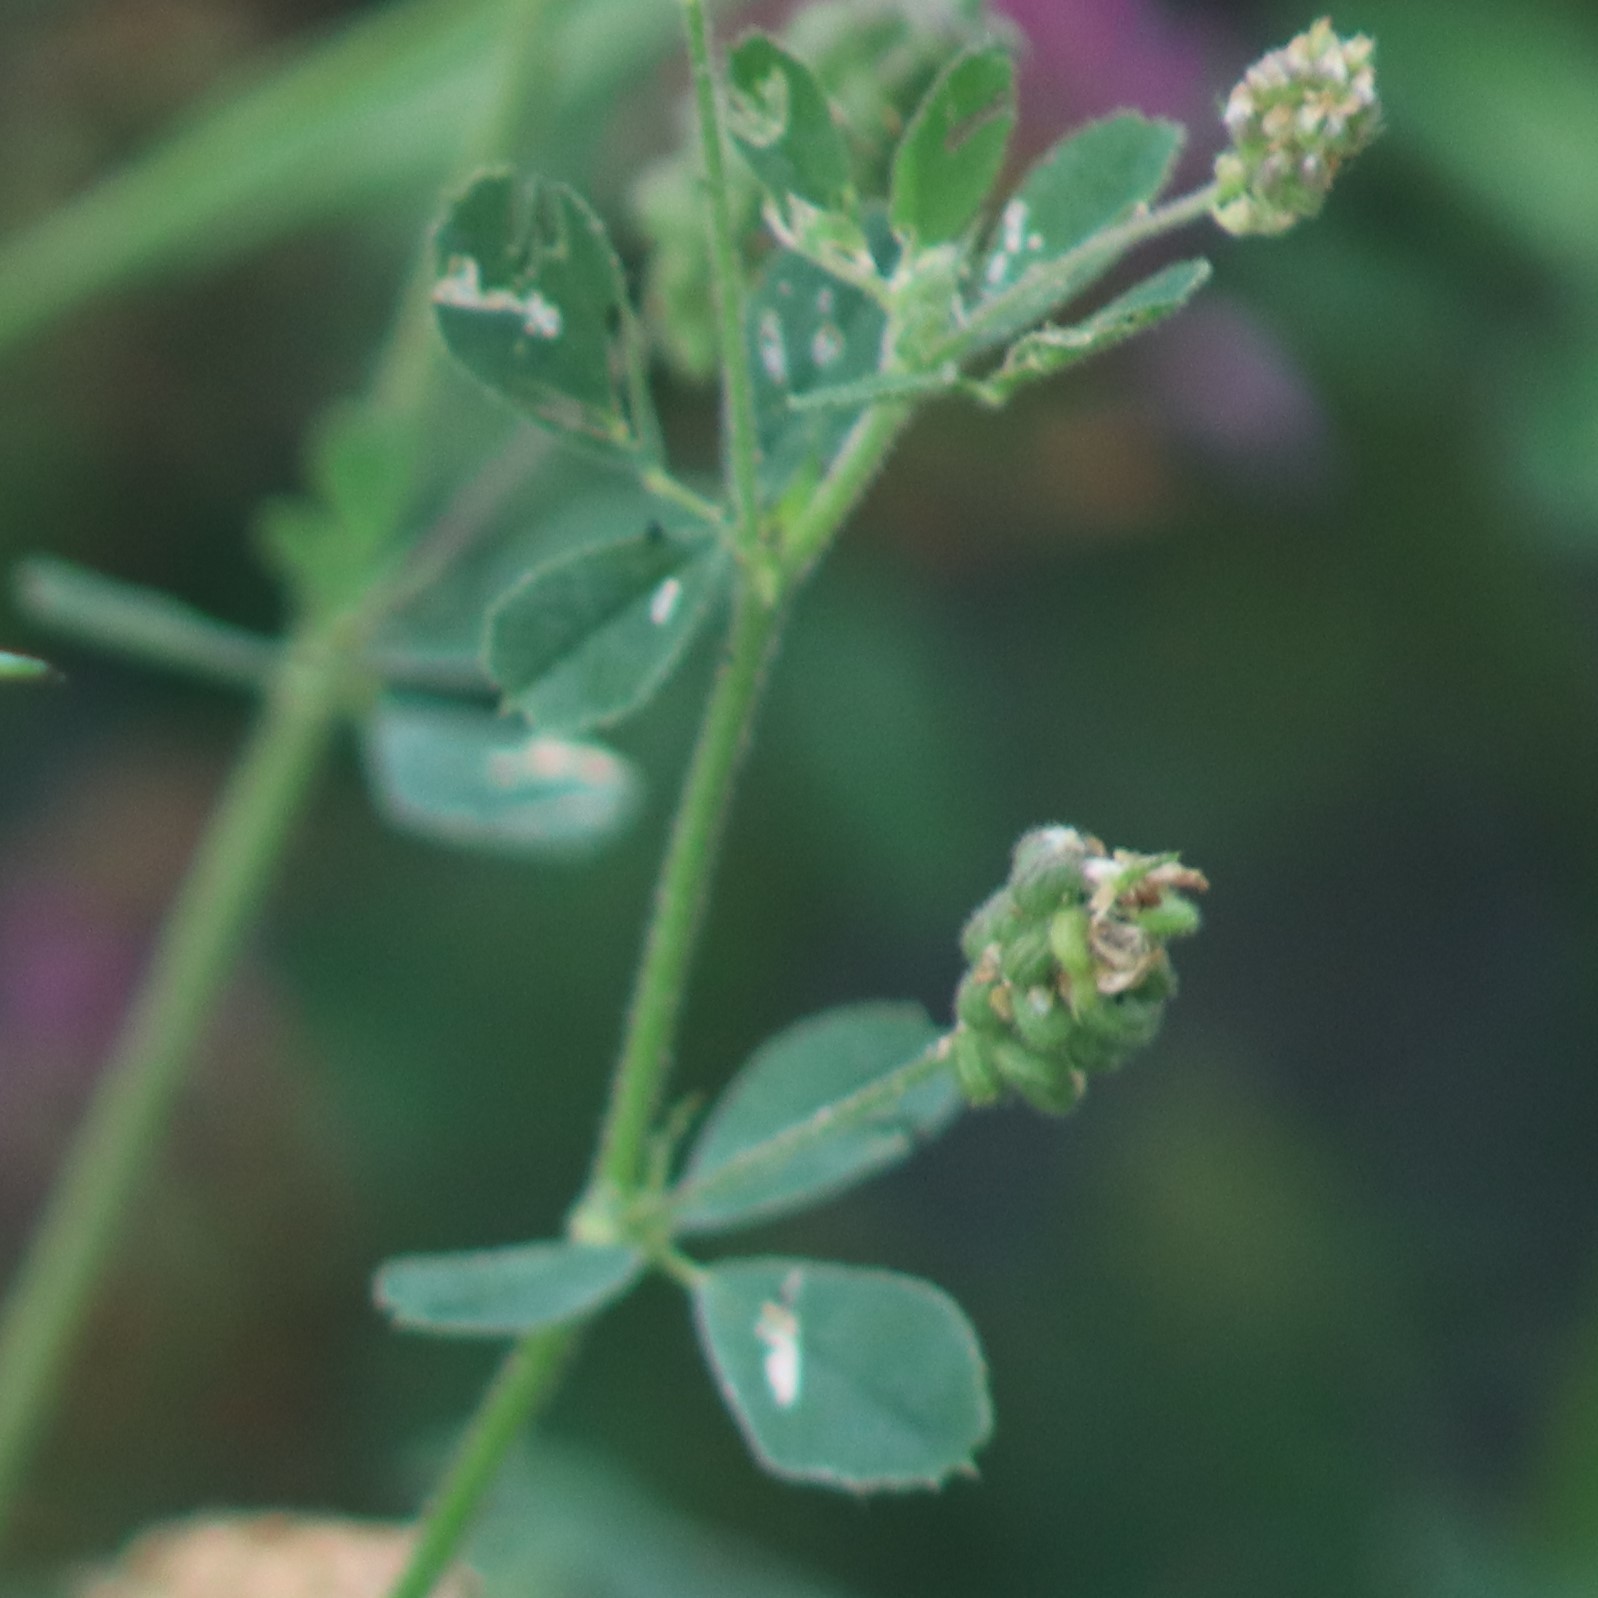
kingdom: Plantae
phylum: Tracheophyta
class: Magnoliopsida
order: Fabales
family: Fabaceae
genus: Medicago
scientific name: Medicago lupulina
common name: Black medick
